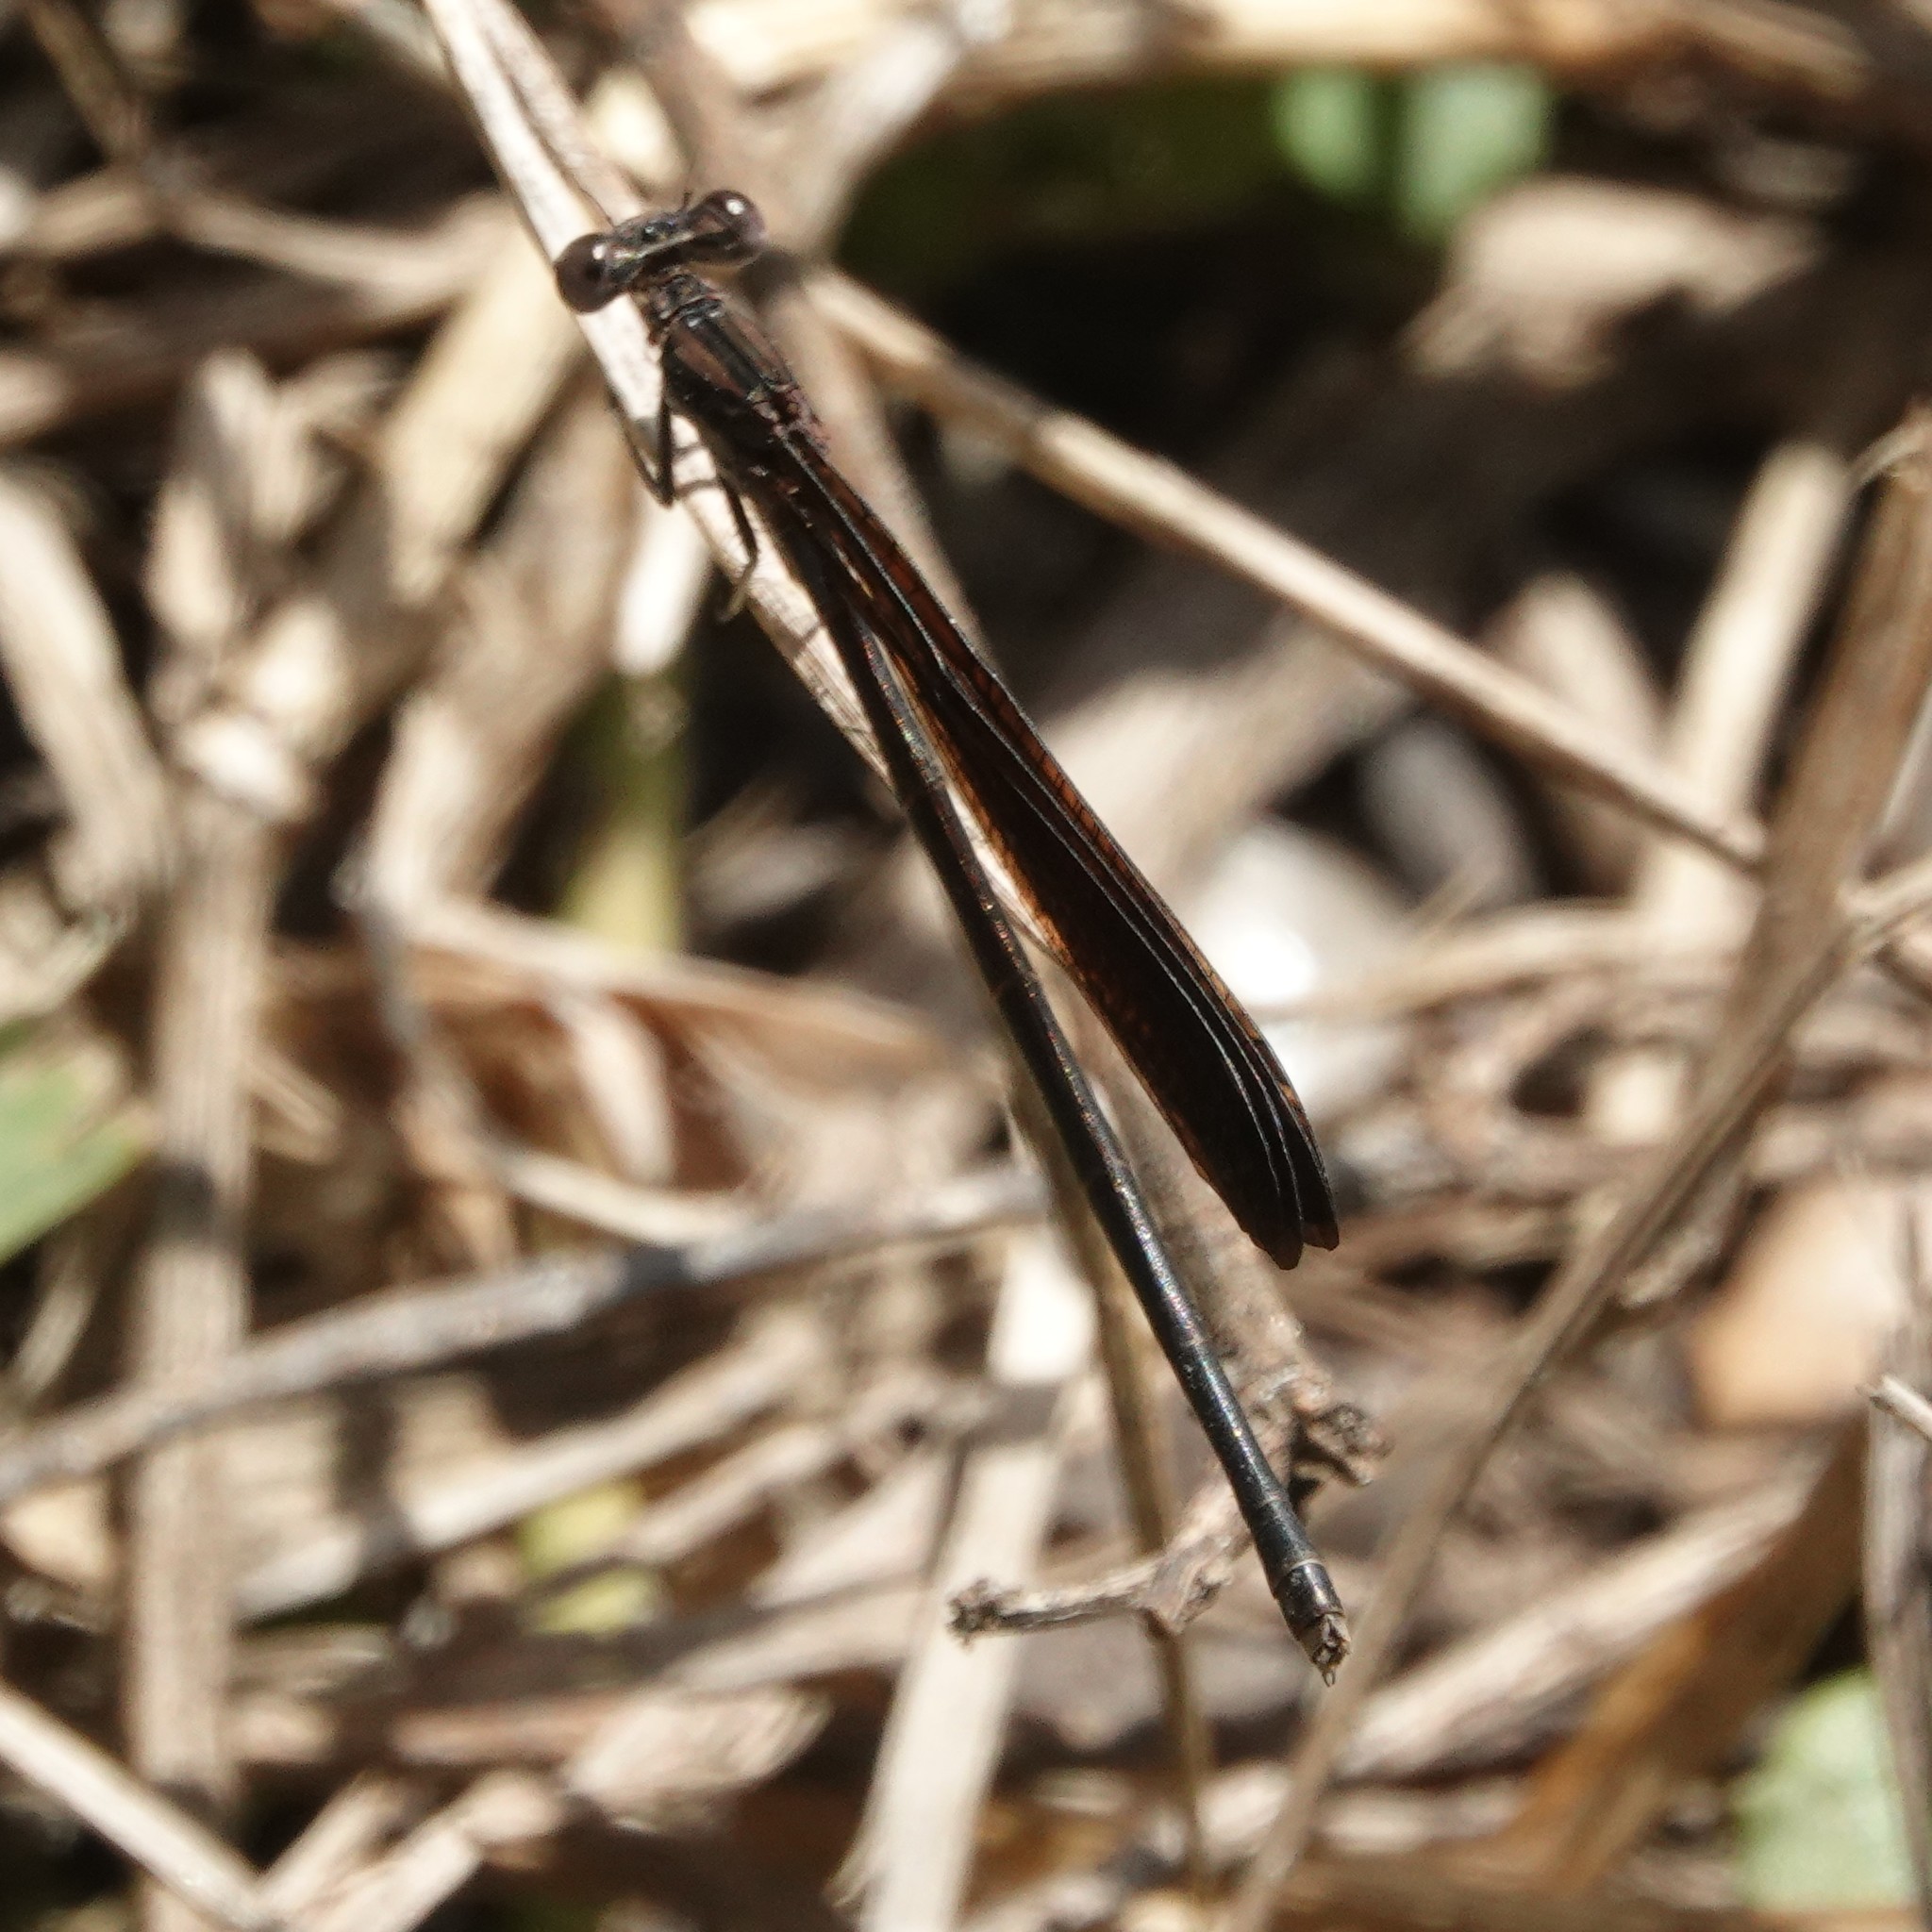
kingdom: Animalia
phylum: Arthropoda
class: Insecta
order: Odonata
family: Coenagrionidae
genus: Argia
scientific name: Argia fumipennis
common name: Variable dancer
